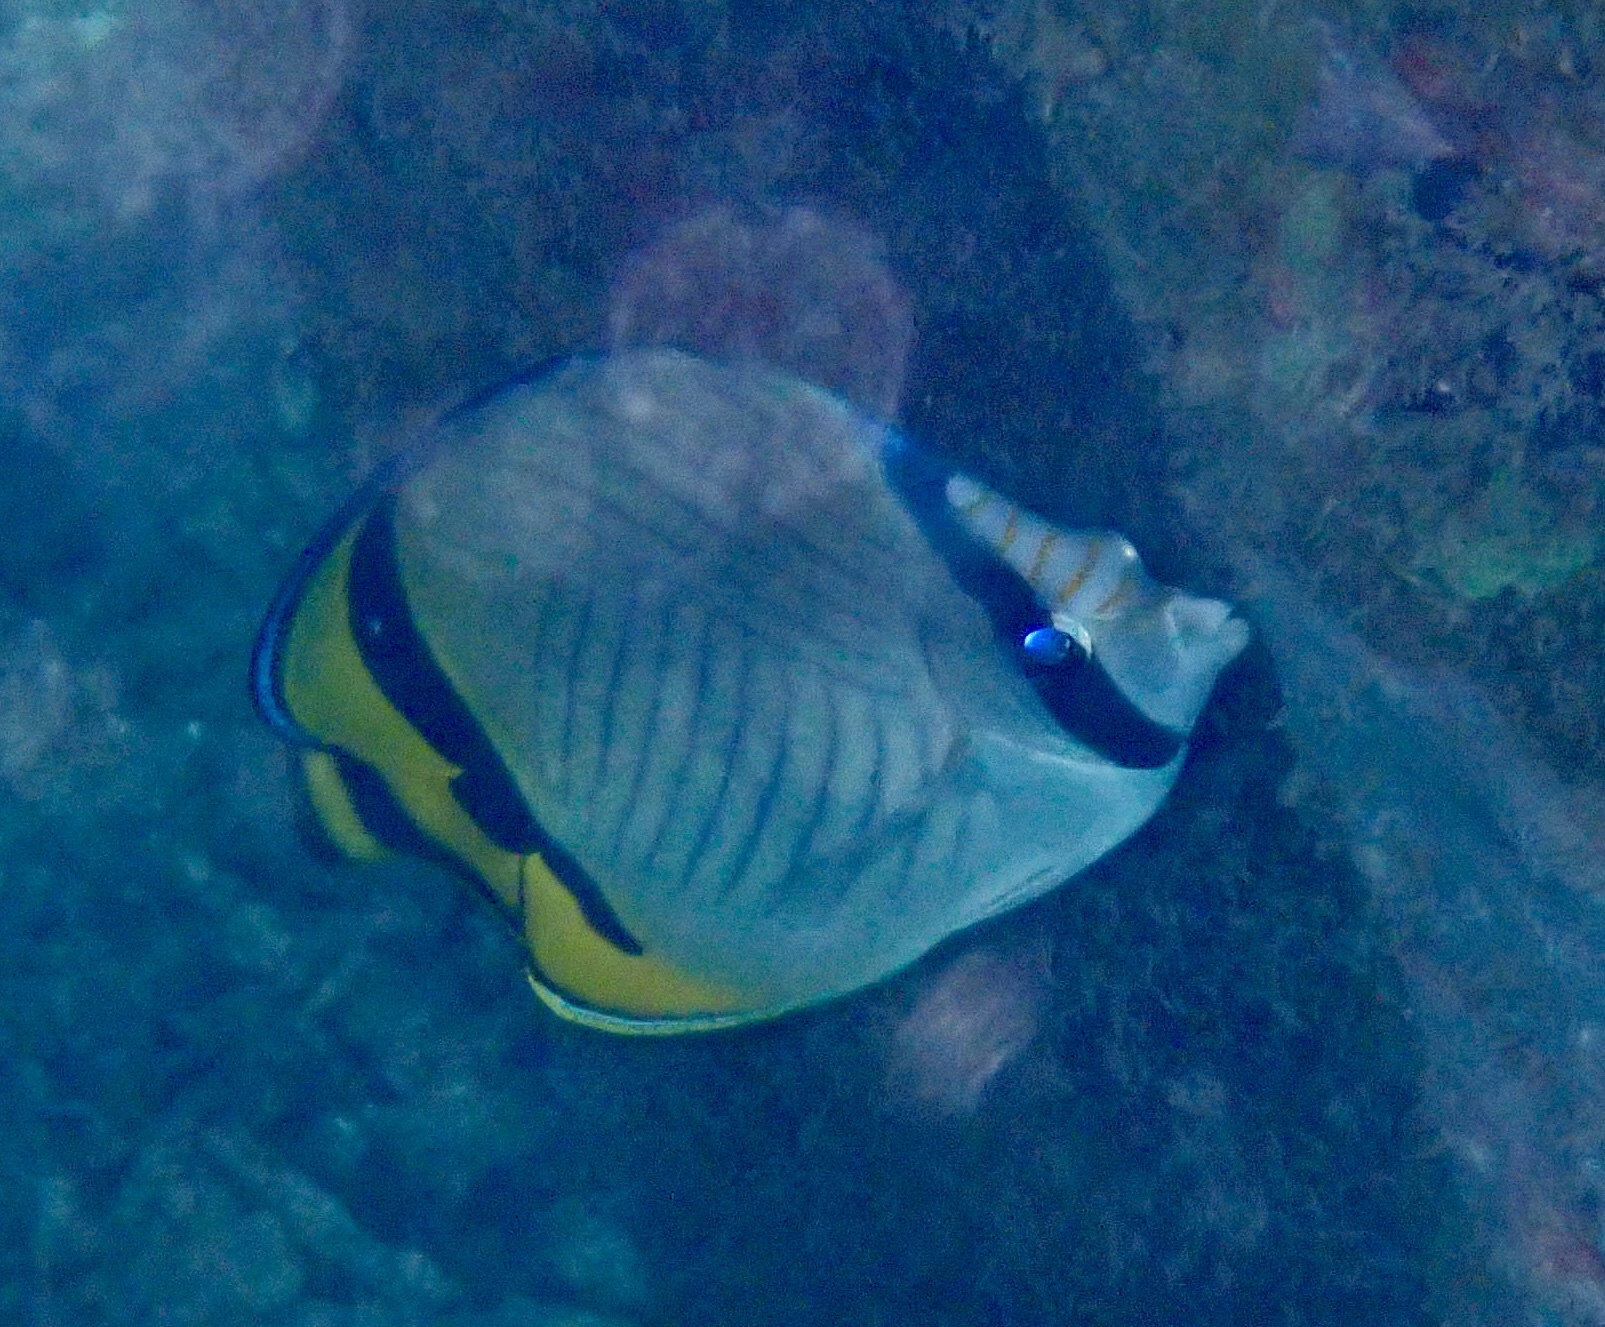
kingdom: Animalia
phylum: Chordata
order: Perciformes
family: Chaetodontidae
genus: Chaetodon
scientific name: Chaetodon vagabundus
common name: Vagabond butterflyfish
